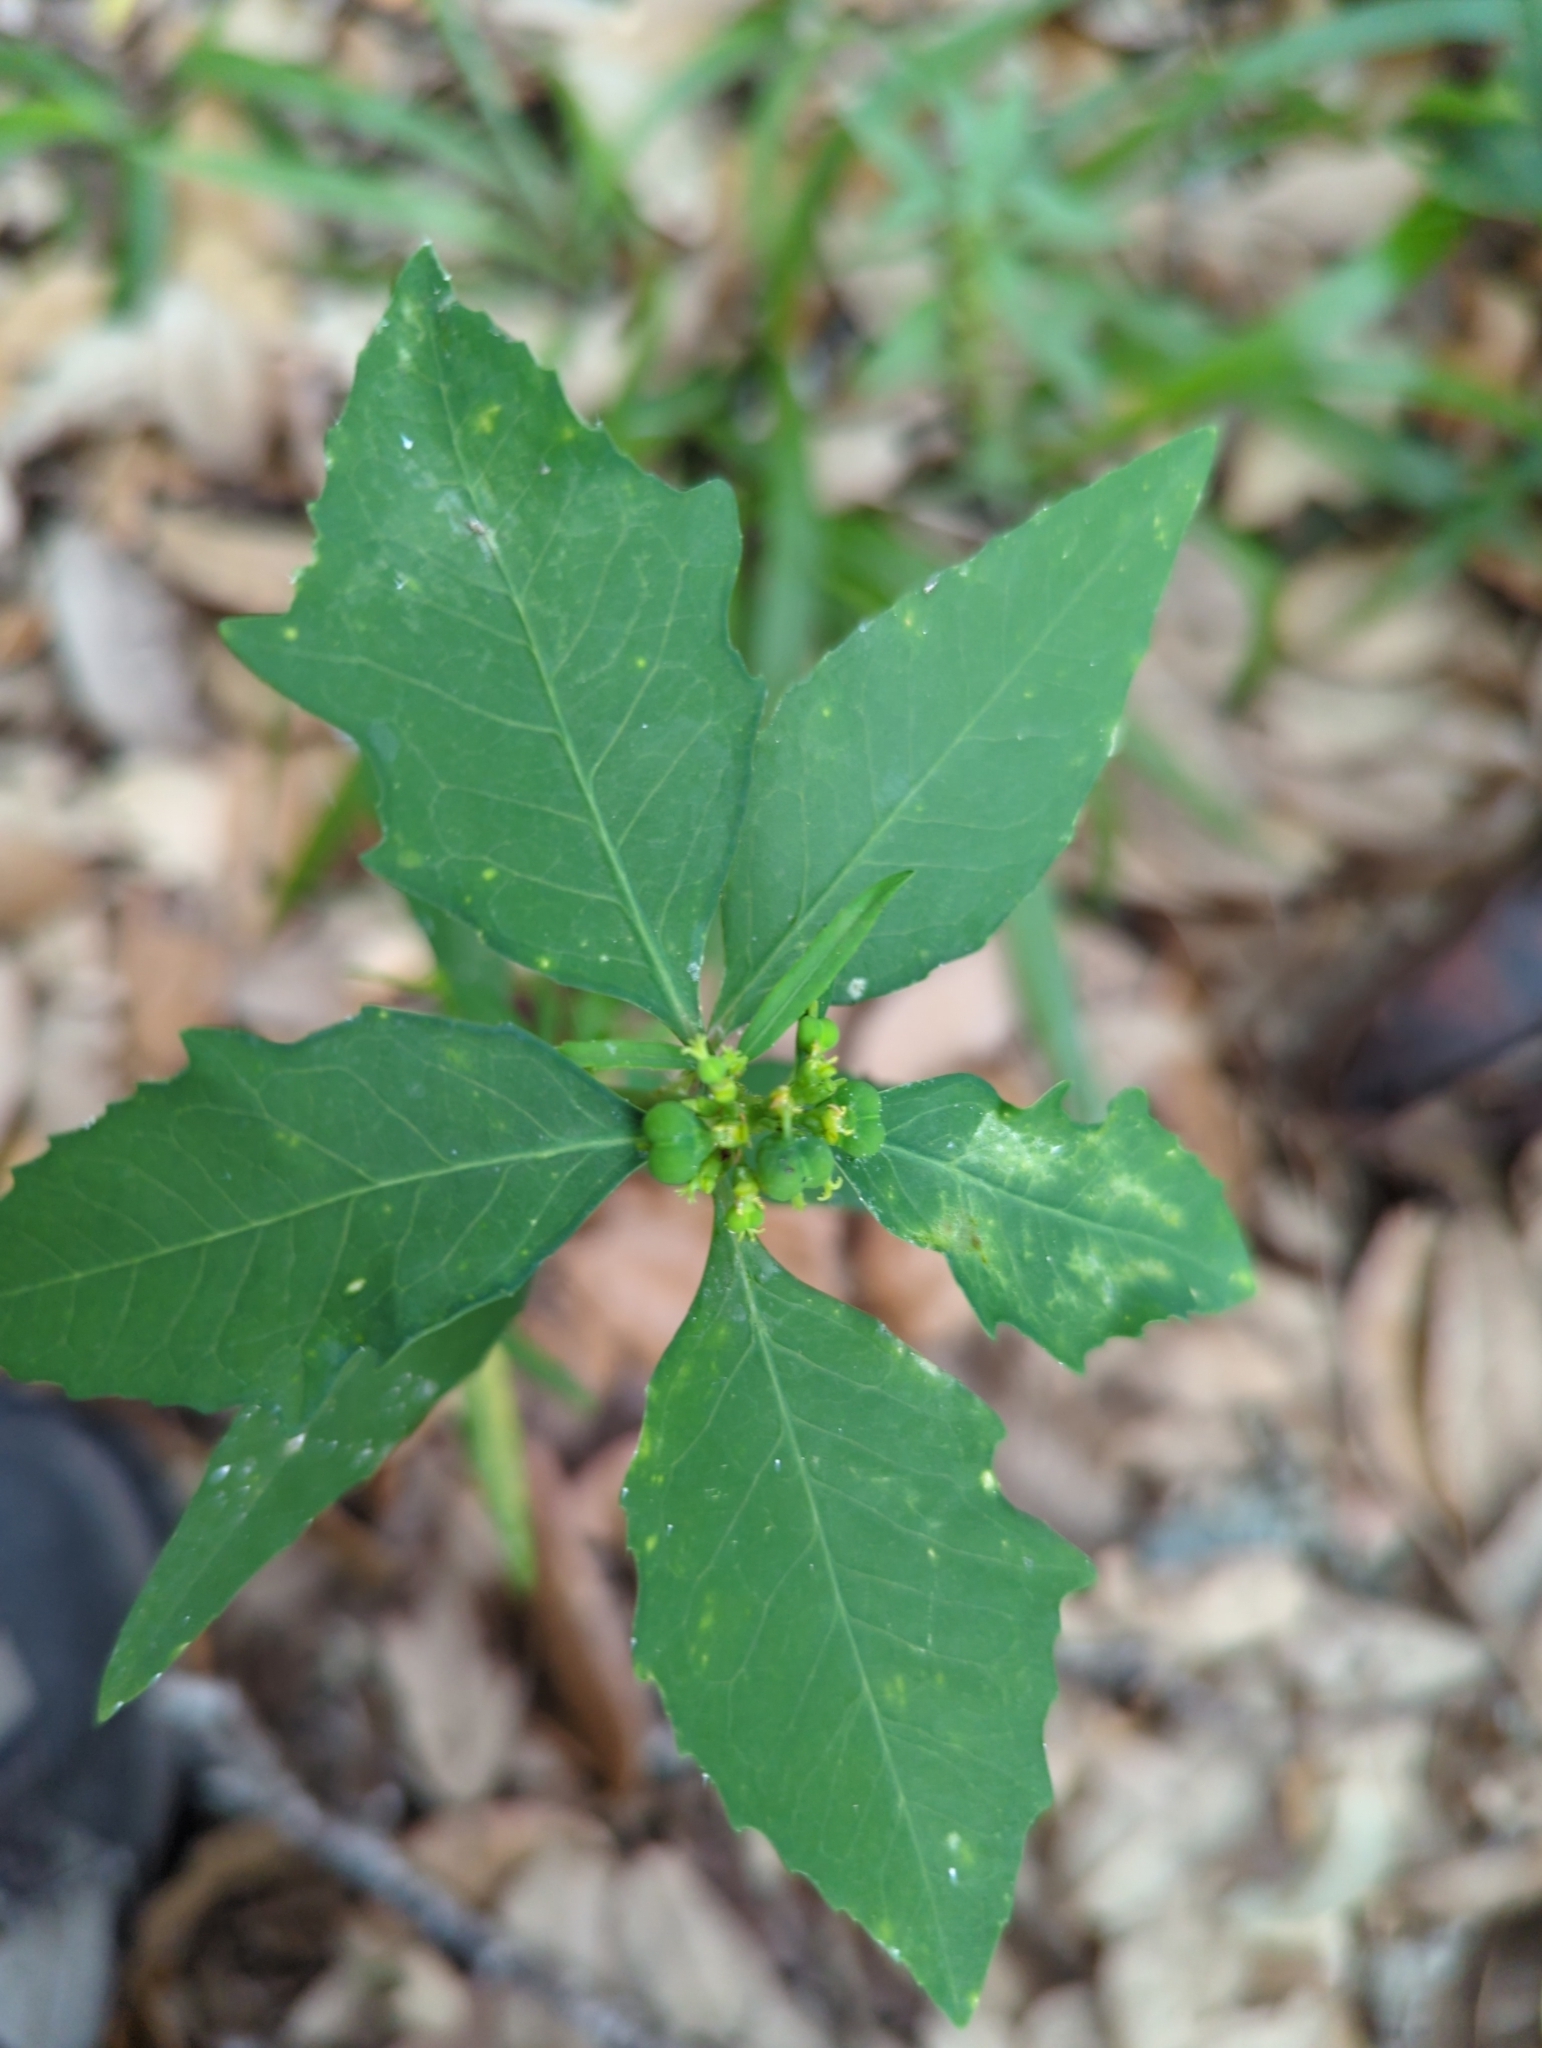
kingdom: Plantae
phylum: Tracheophyta
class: Magnoliopsida
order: Malpighiales
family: Euphorbiaceae
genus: Euphorbia
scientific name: Euphorbia heterophylla
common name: Mexican fireplant
